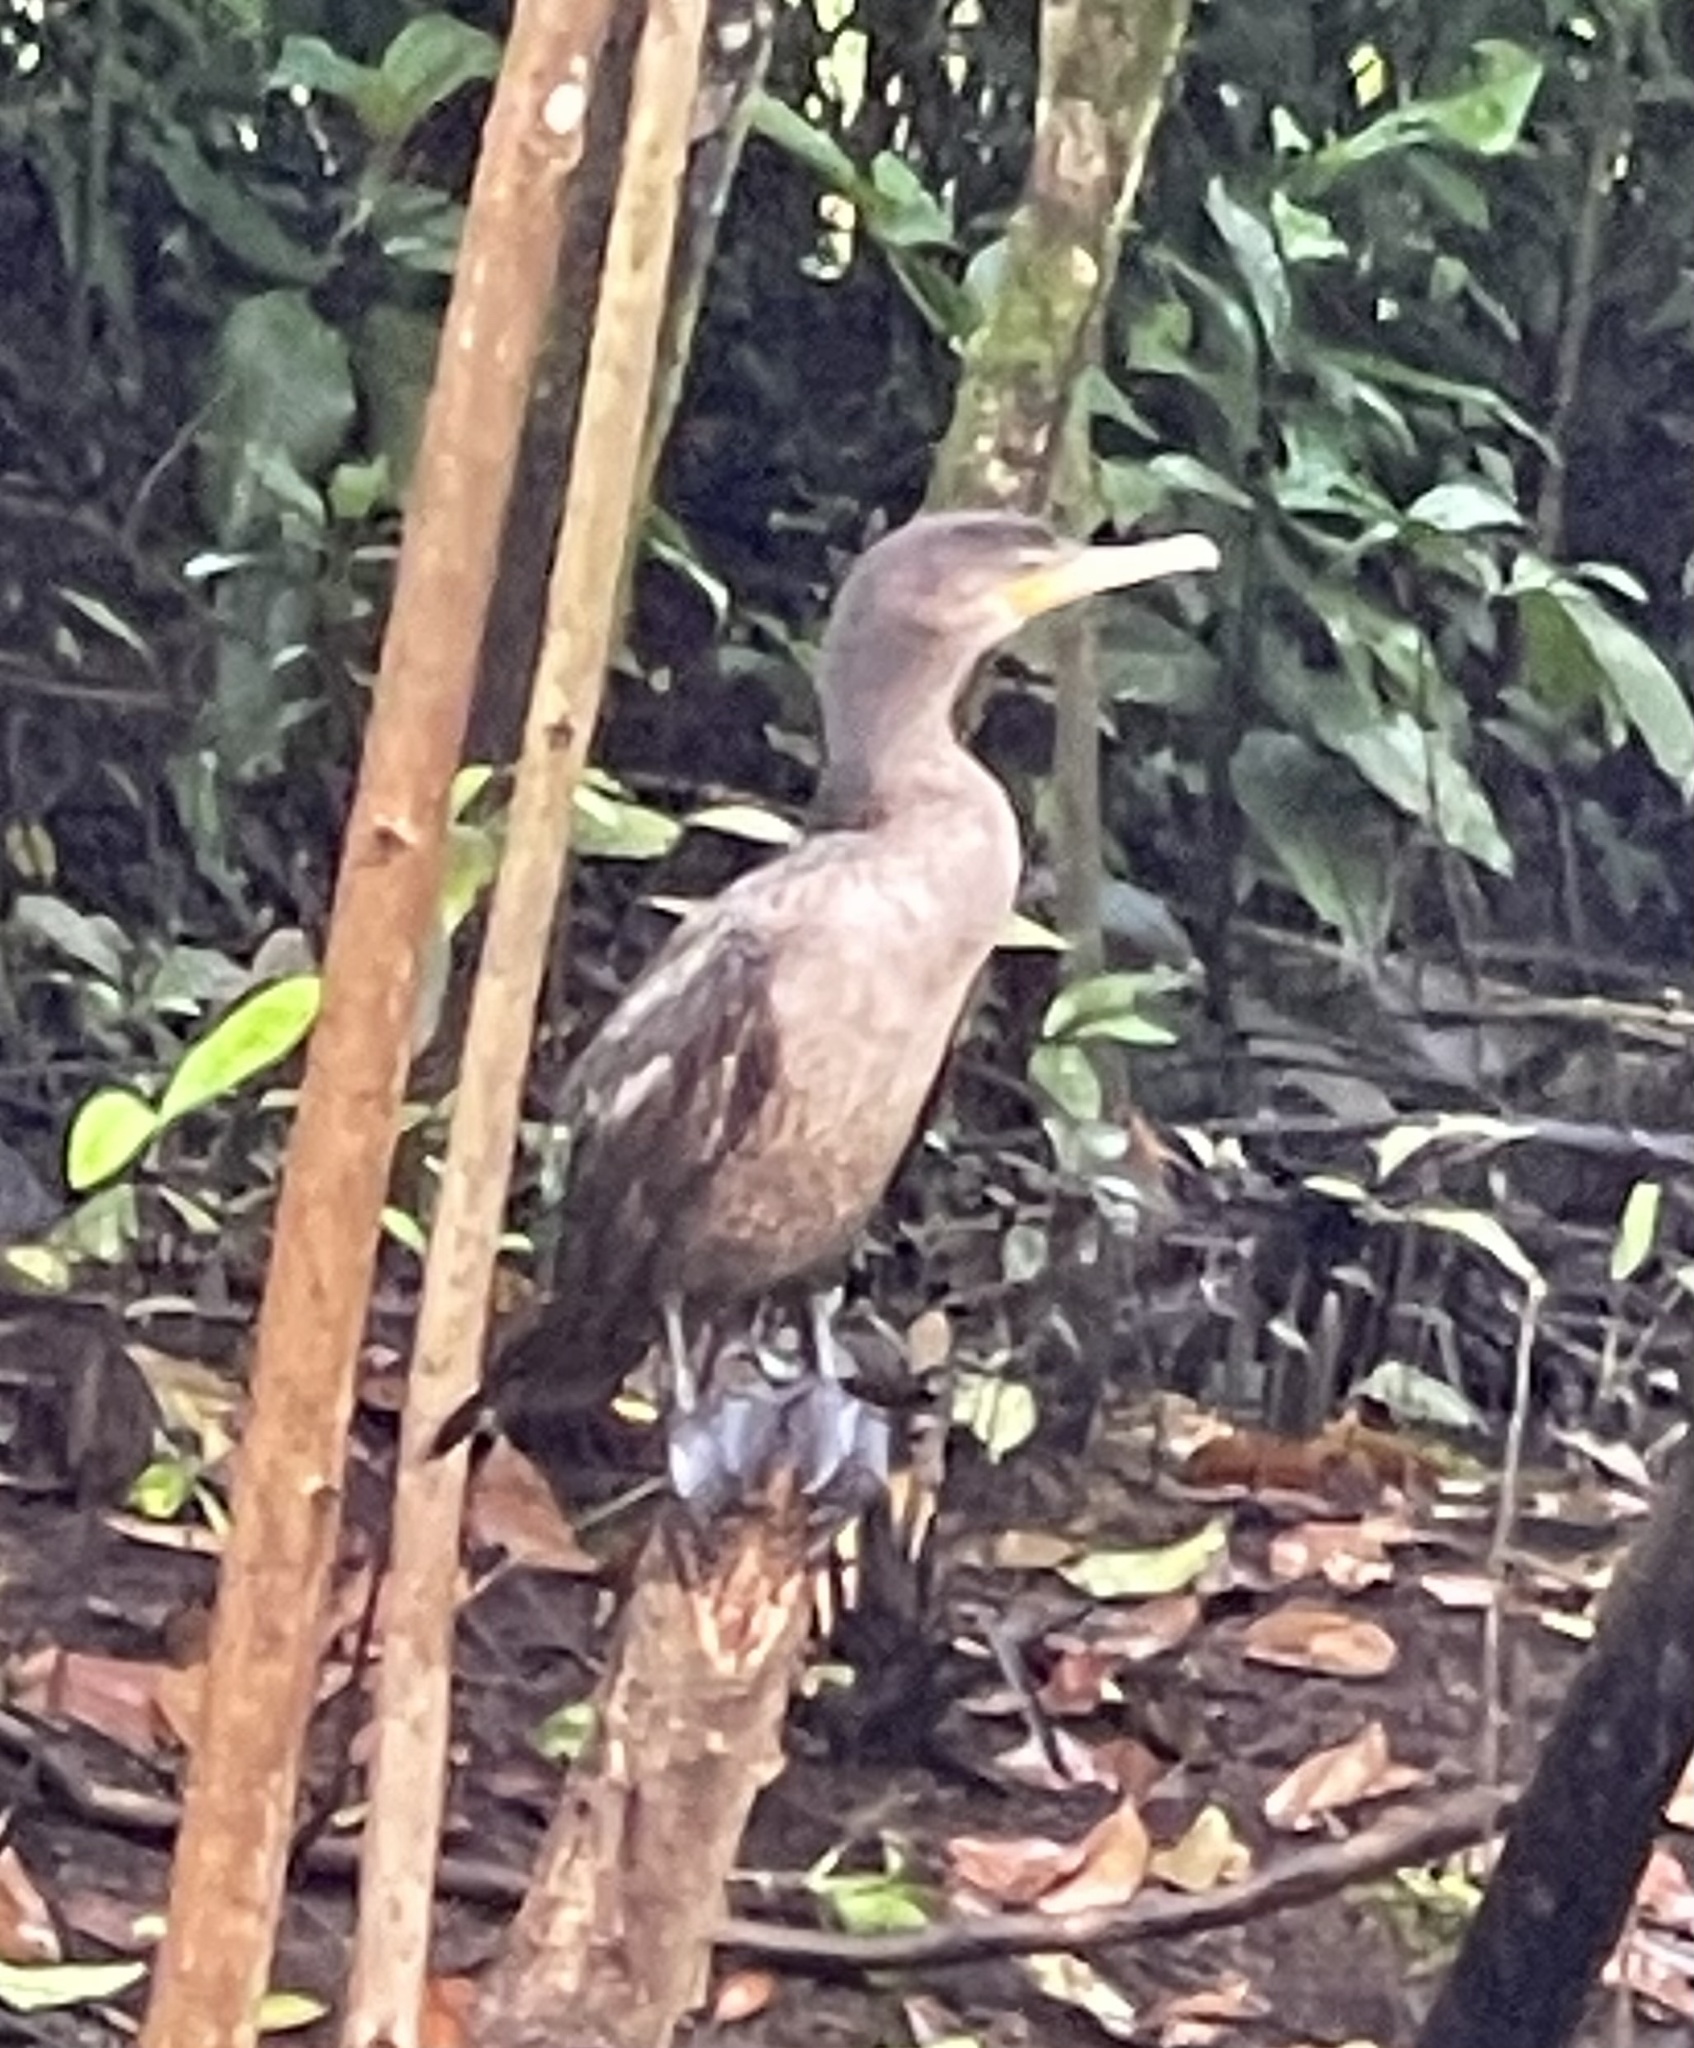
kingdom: Animalia
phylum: Chordata
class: Aves
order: Suliformes
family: Phalacrocoracidae
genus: Phalacrocorax
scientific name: Phalacrocorax brasilianus
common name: Neotropic cormorant
